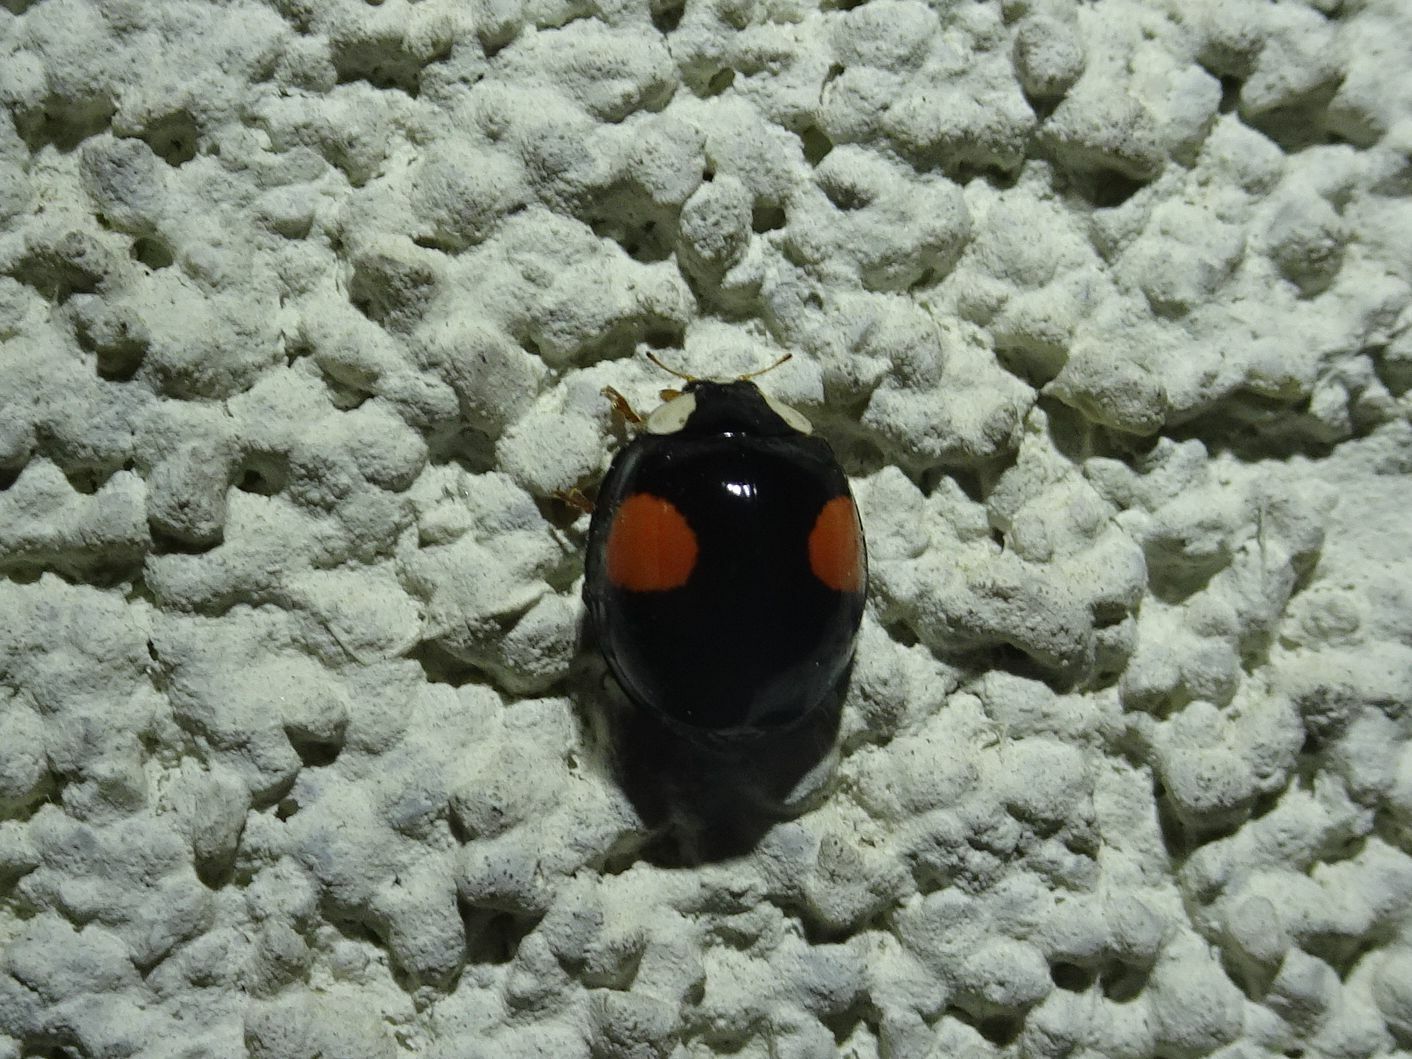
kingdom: Animalia
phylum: Arthropoda
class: Insecta
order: Coleoptera
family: Coccinellidae
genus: Harmonia
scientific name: Harmonia axyridis
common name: Harlequin ladybird
